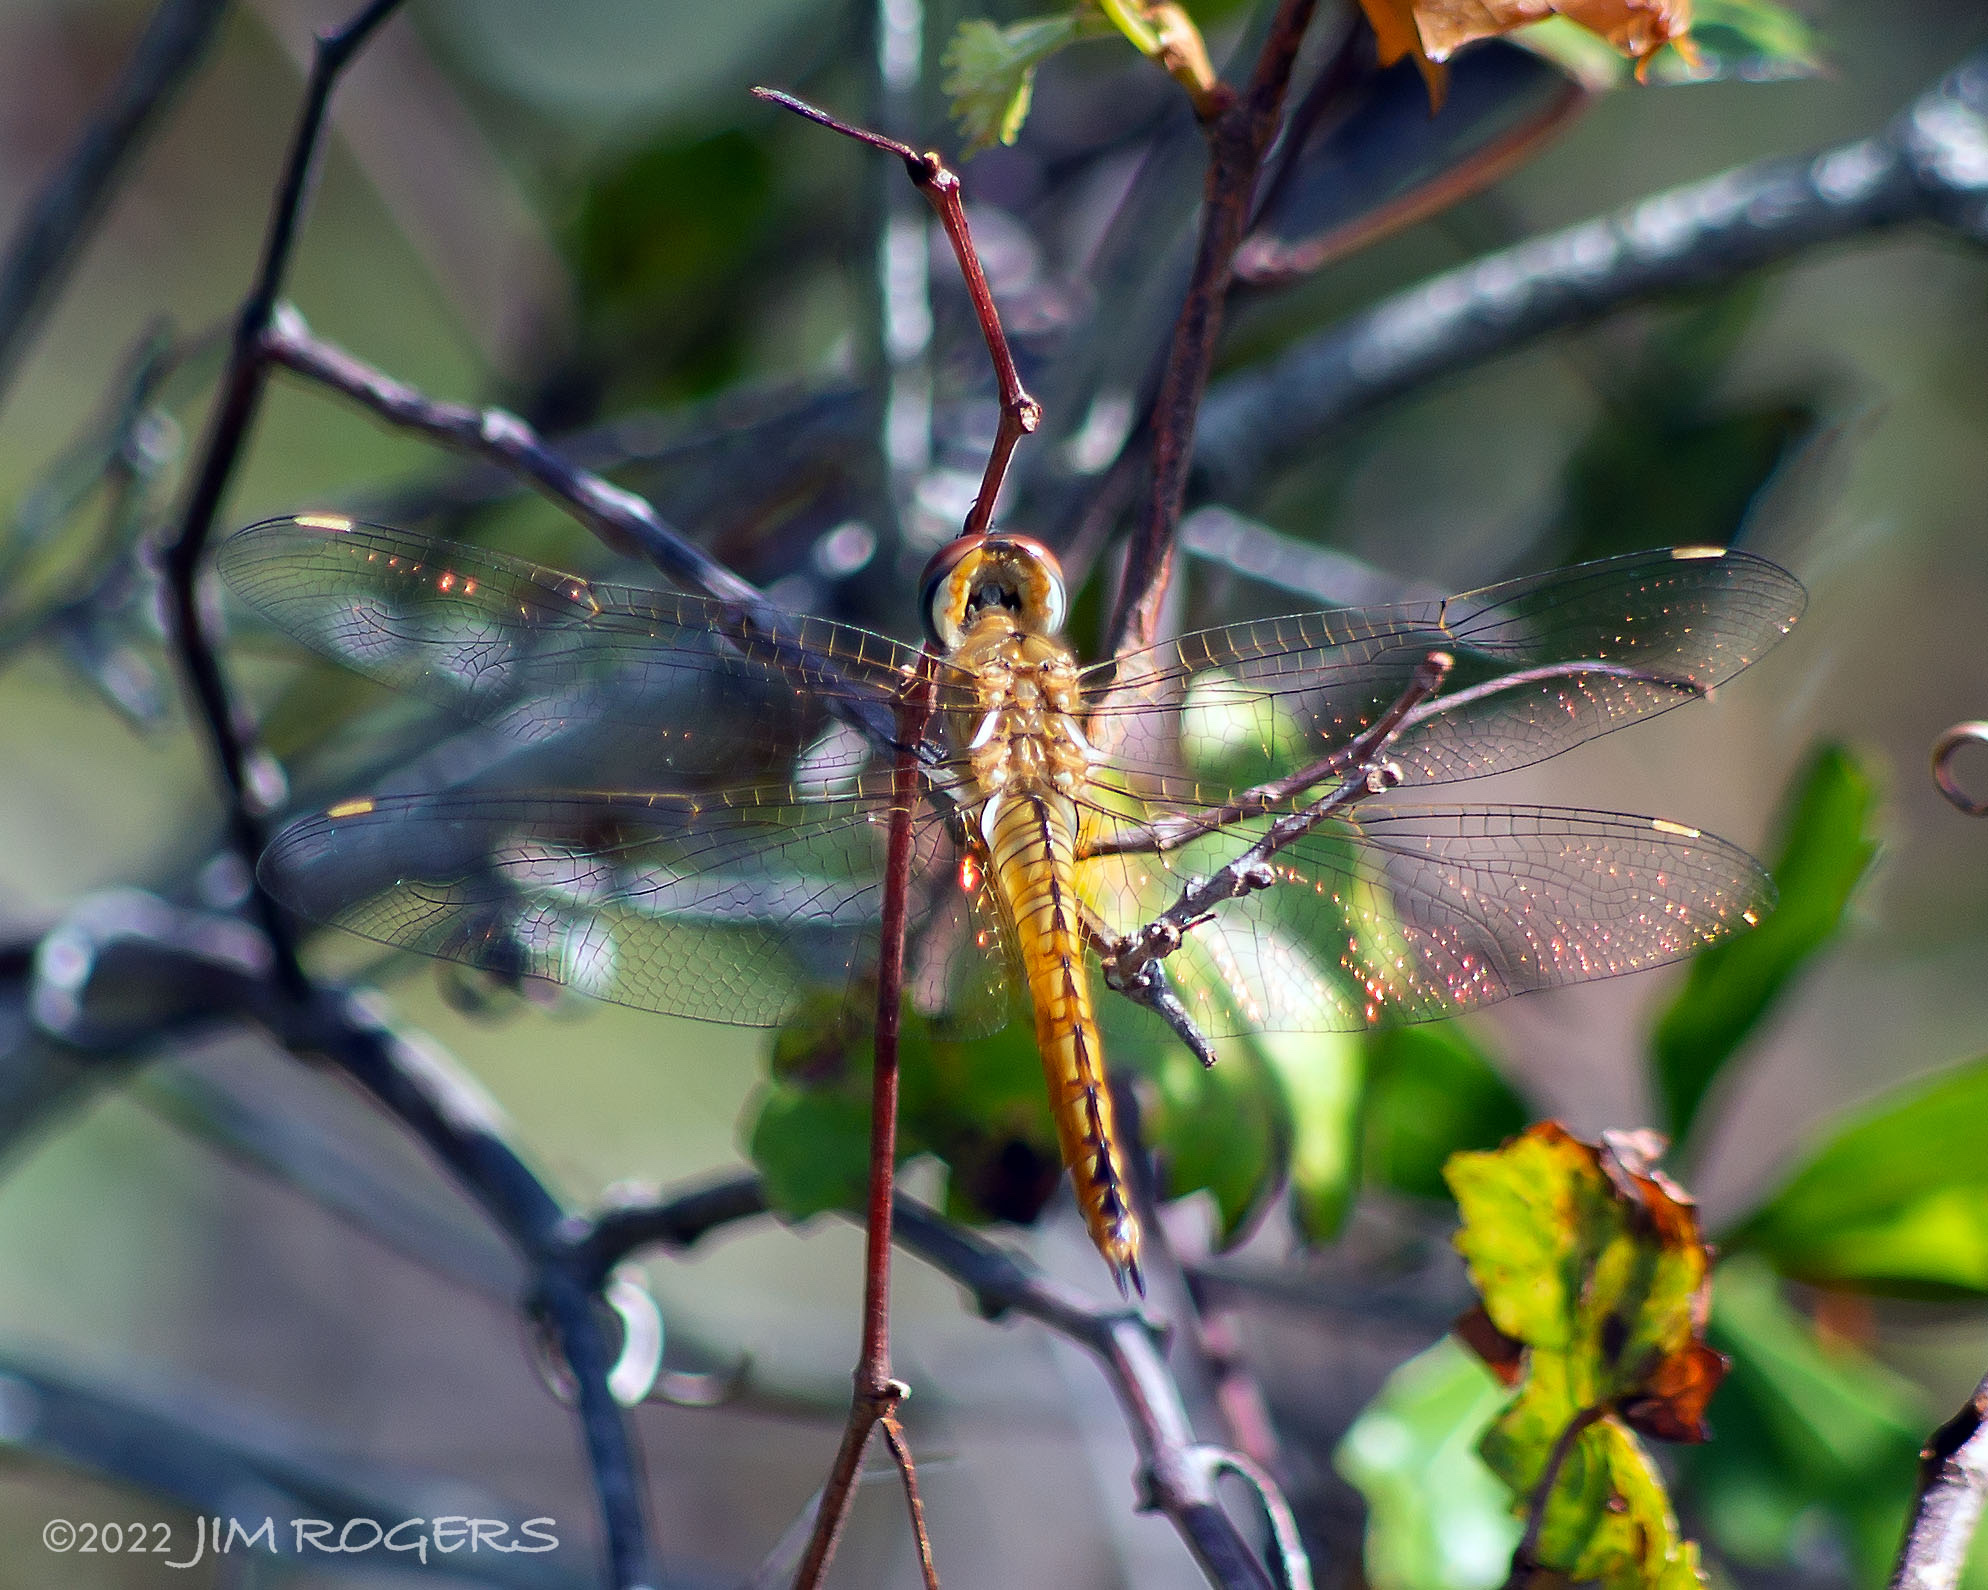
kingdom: Animalia
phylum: Arthropoda
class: Insecta
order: Odonata
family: Libellulidae
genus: Pantala
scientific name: Pantala flavescens
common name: Wandering glider
